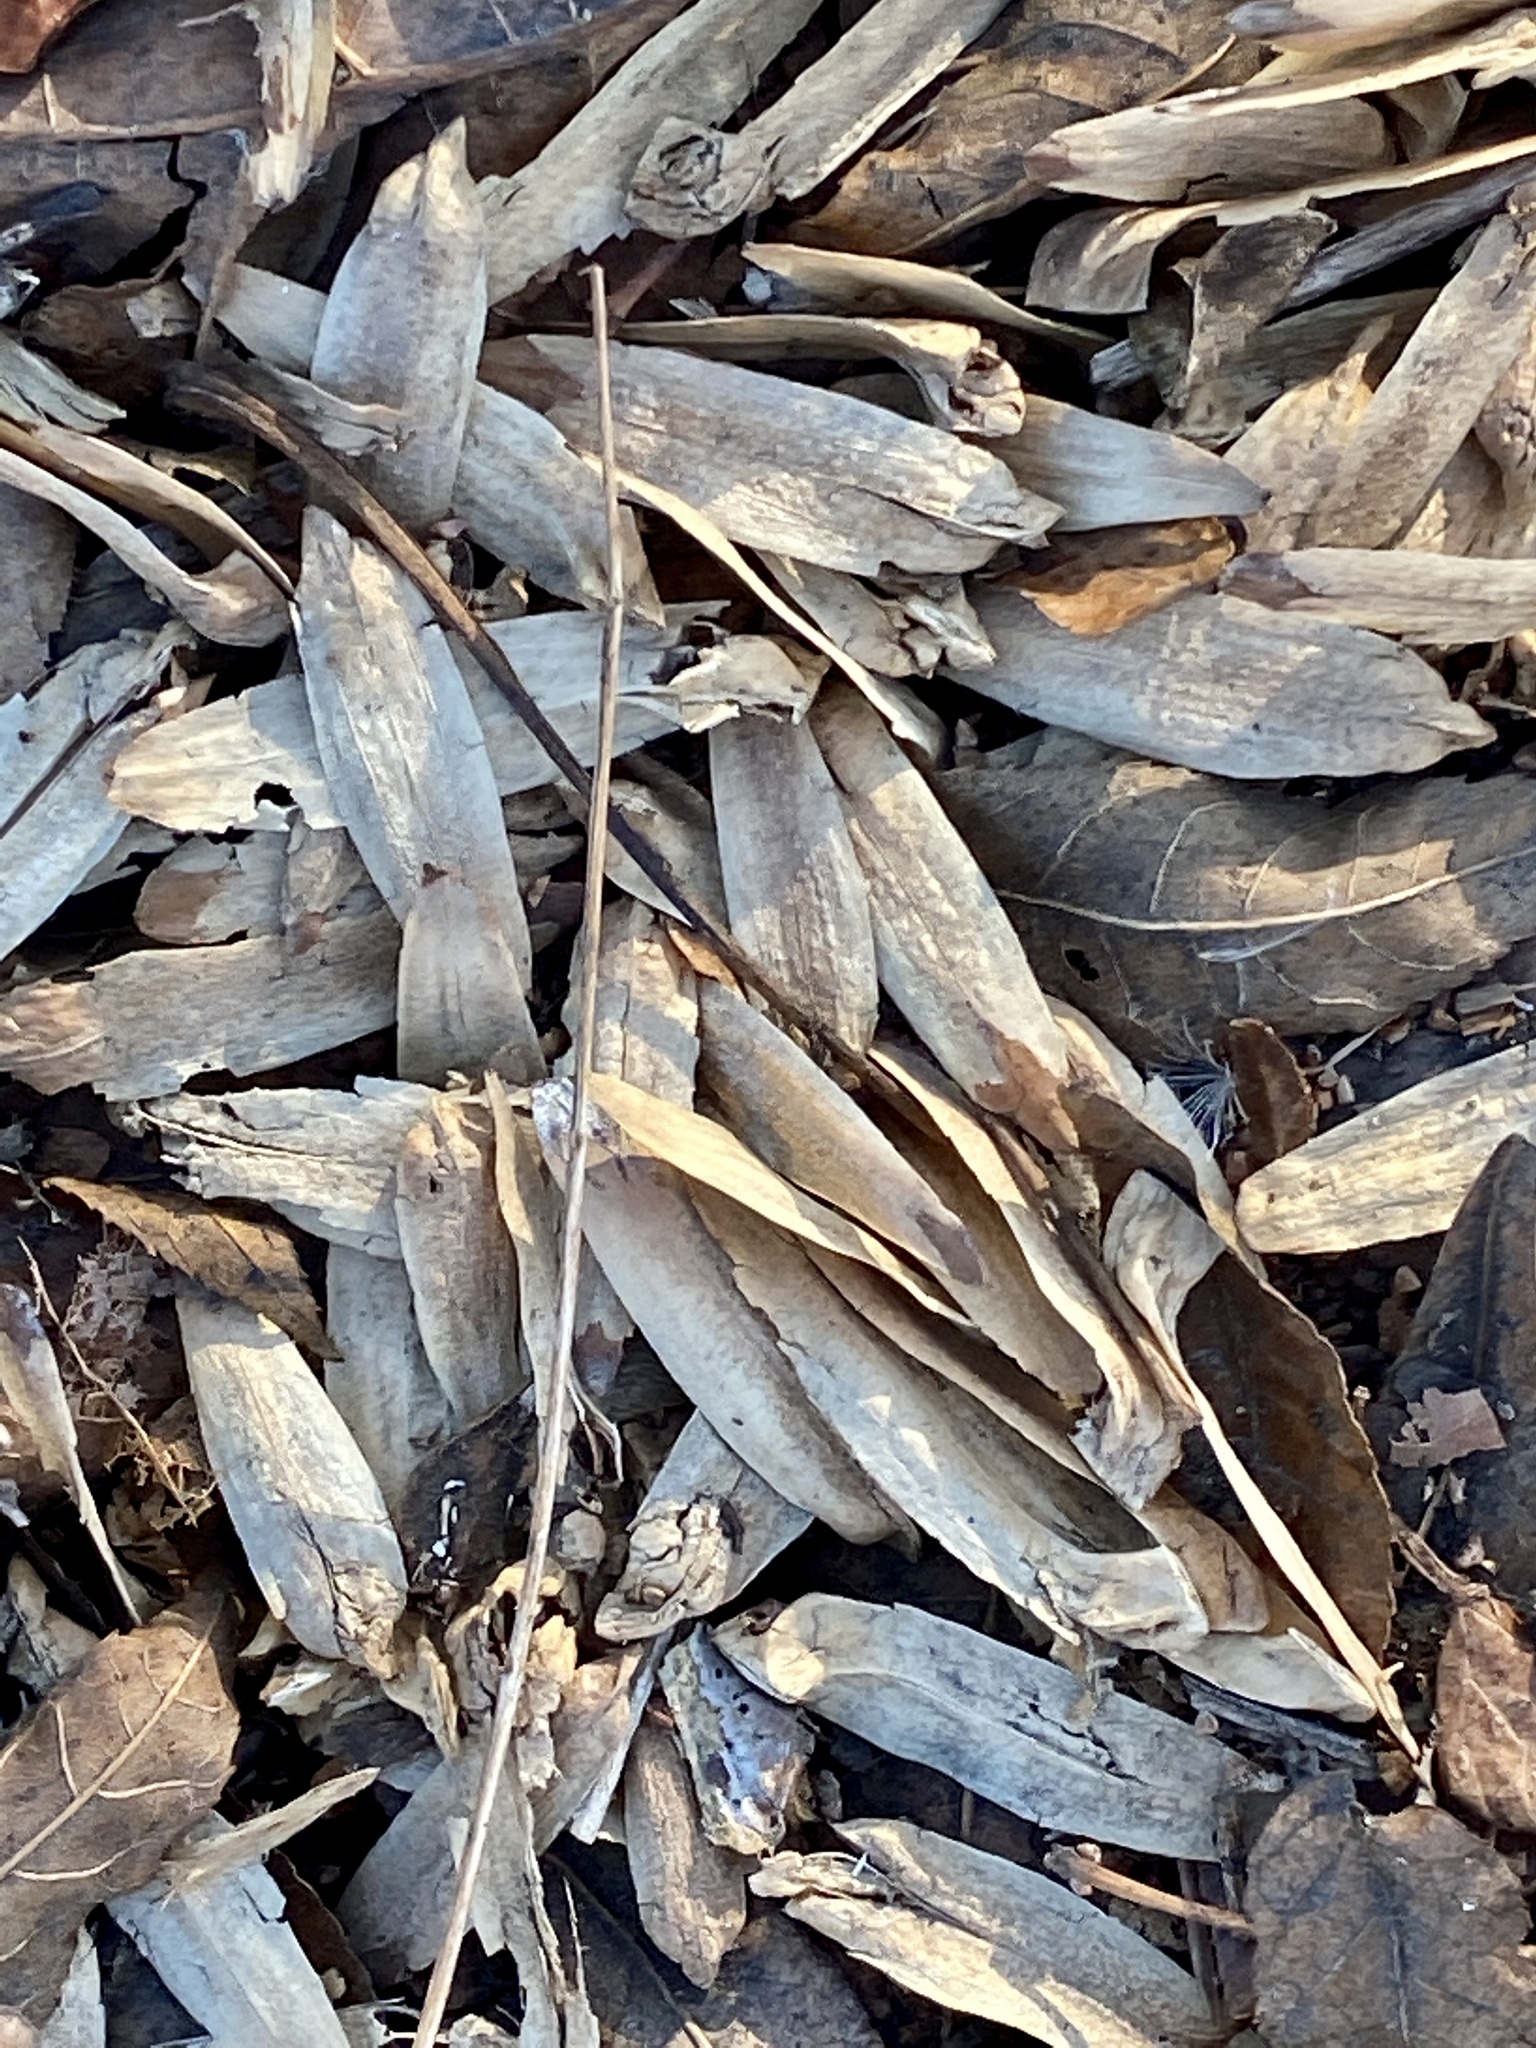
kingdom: Plantae
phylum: Tracheophyta
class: Magnoliopsida
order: Magnoliales
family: Magnoliaceae
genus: Liriodendron
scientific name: Liriodendron tulipifera
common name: Tulip tree
